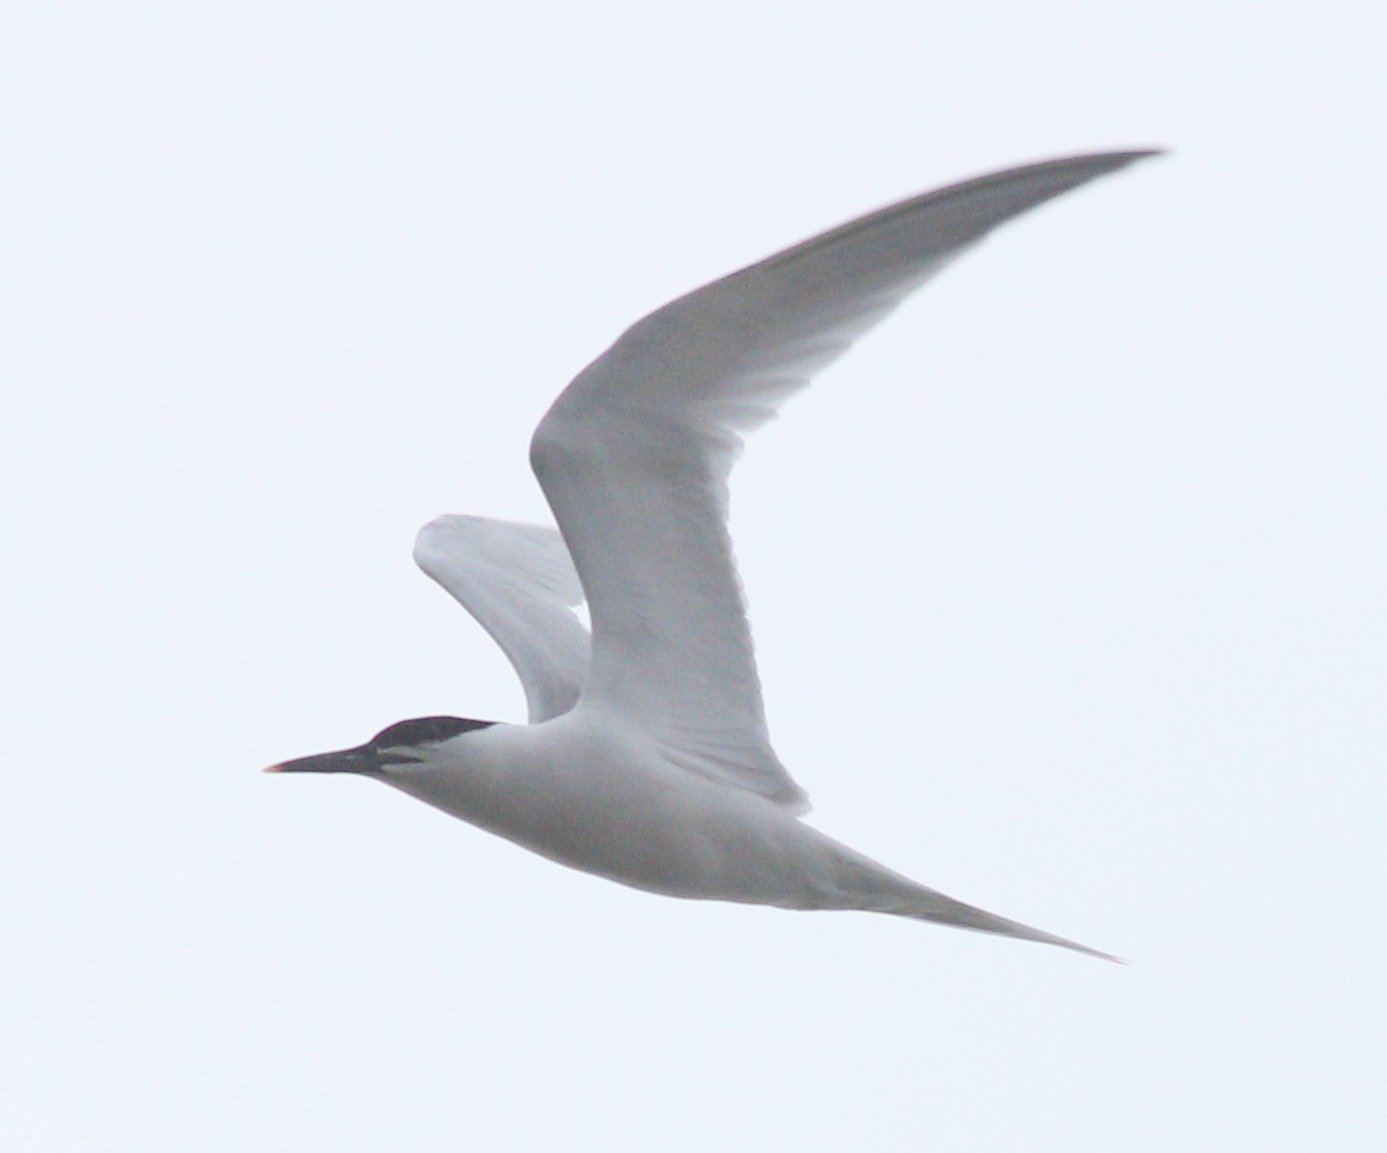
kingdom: Animalia
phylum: Chordata
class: Aves
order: Charadriiformes
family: Laridae
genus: Thalasseus
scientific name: Thalasseus sandvicensis
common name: Sandwich tern
